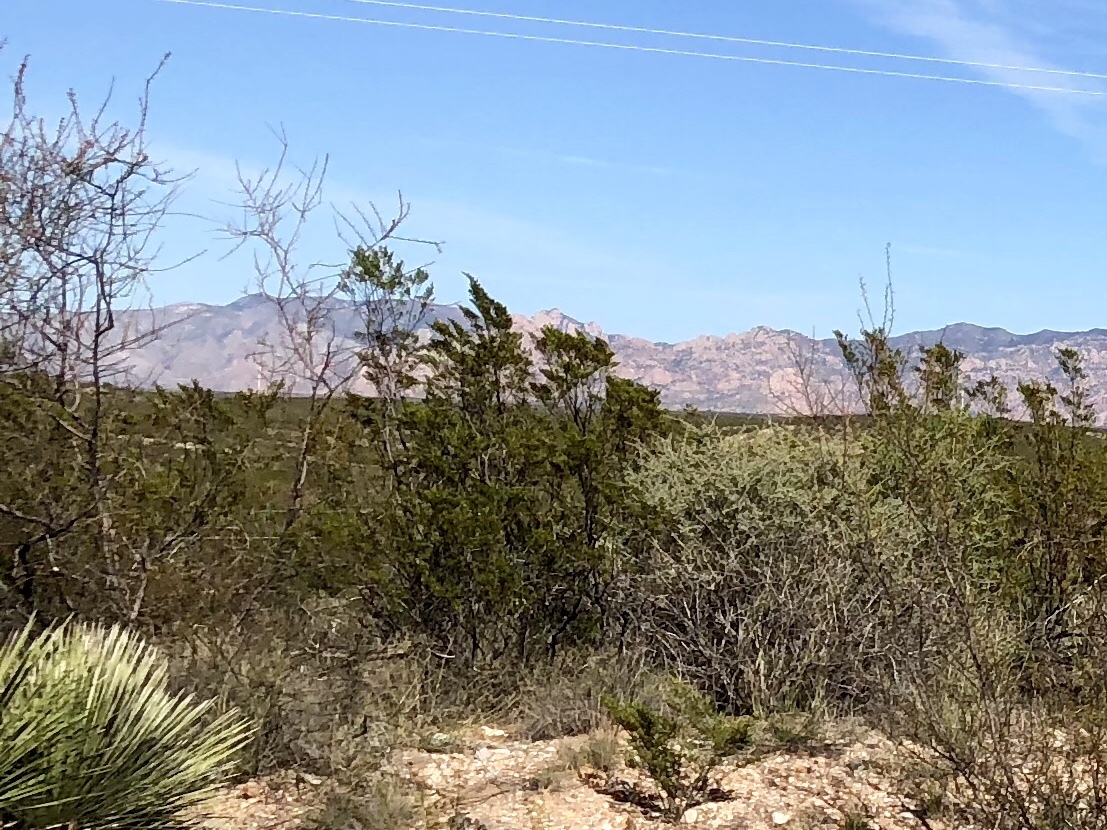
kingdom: Plantae
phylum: Tracheophyta
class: Magnoliopsida
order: Zygophyllales
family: Zygophyllaceae
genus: Larrea
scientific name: Larrea tridentata
